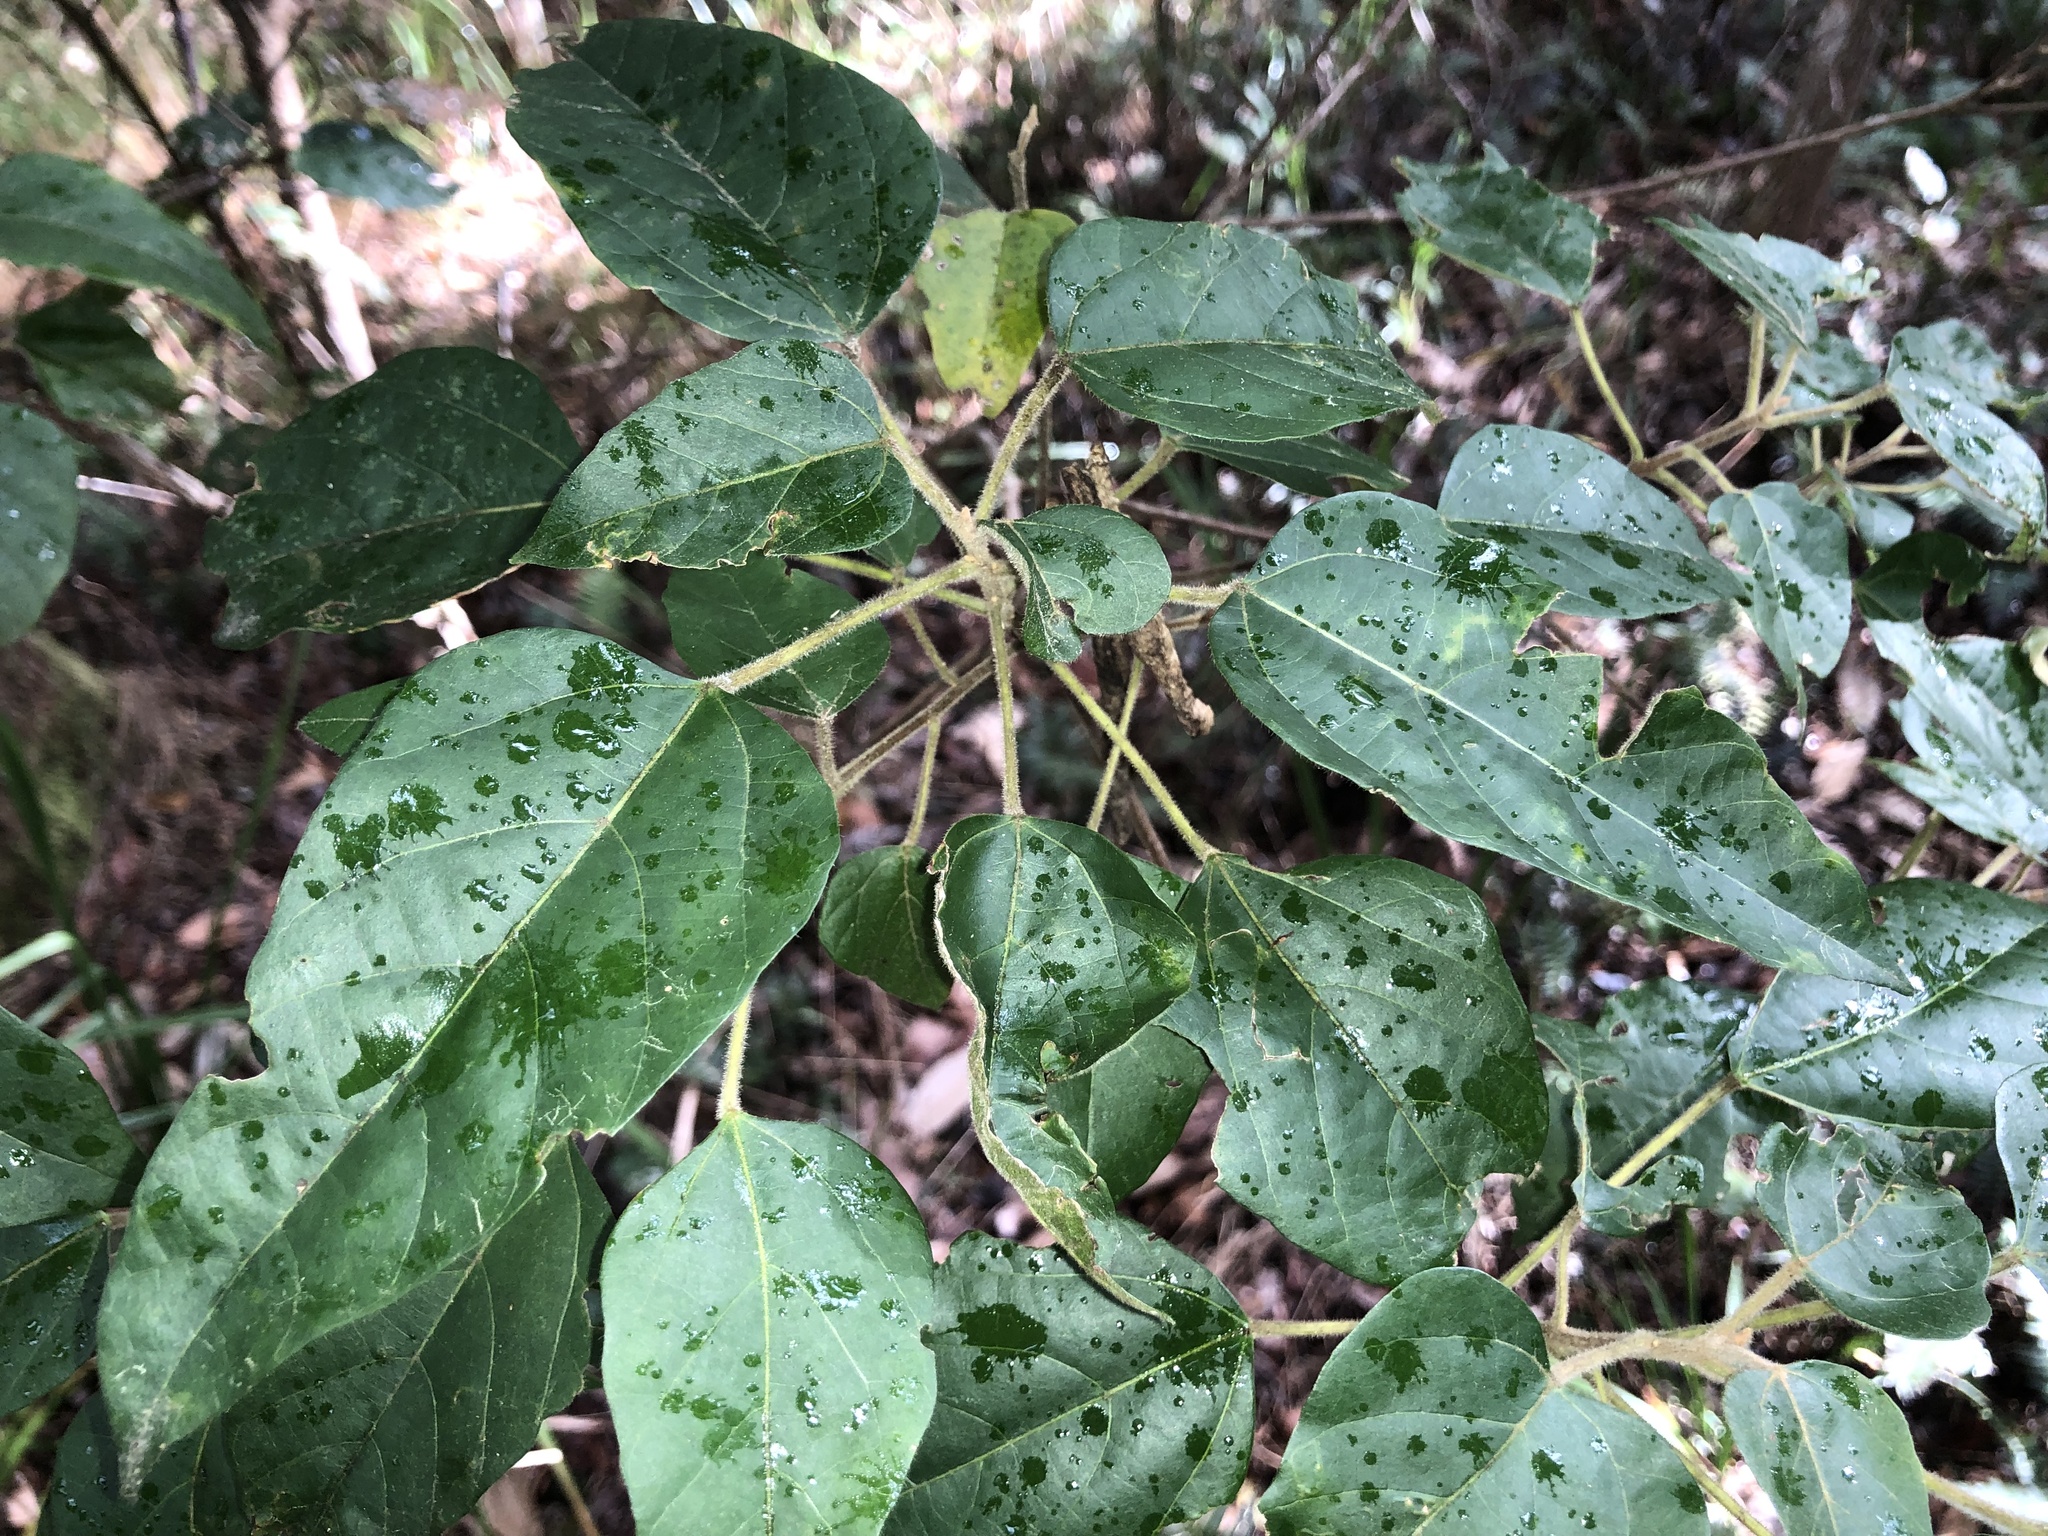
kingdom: Plantae
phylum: Tracheophyta
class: Magnoliopsida
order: Malpighiales
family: Euphorbiaceae
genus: Mallotus
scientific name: Mallotus discolor
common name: White kamala
